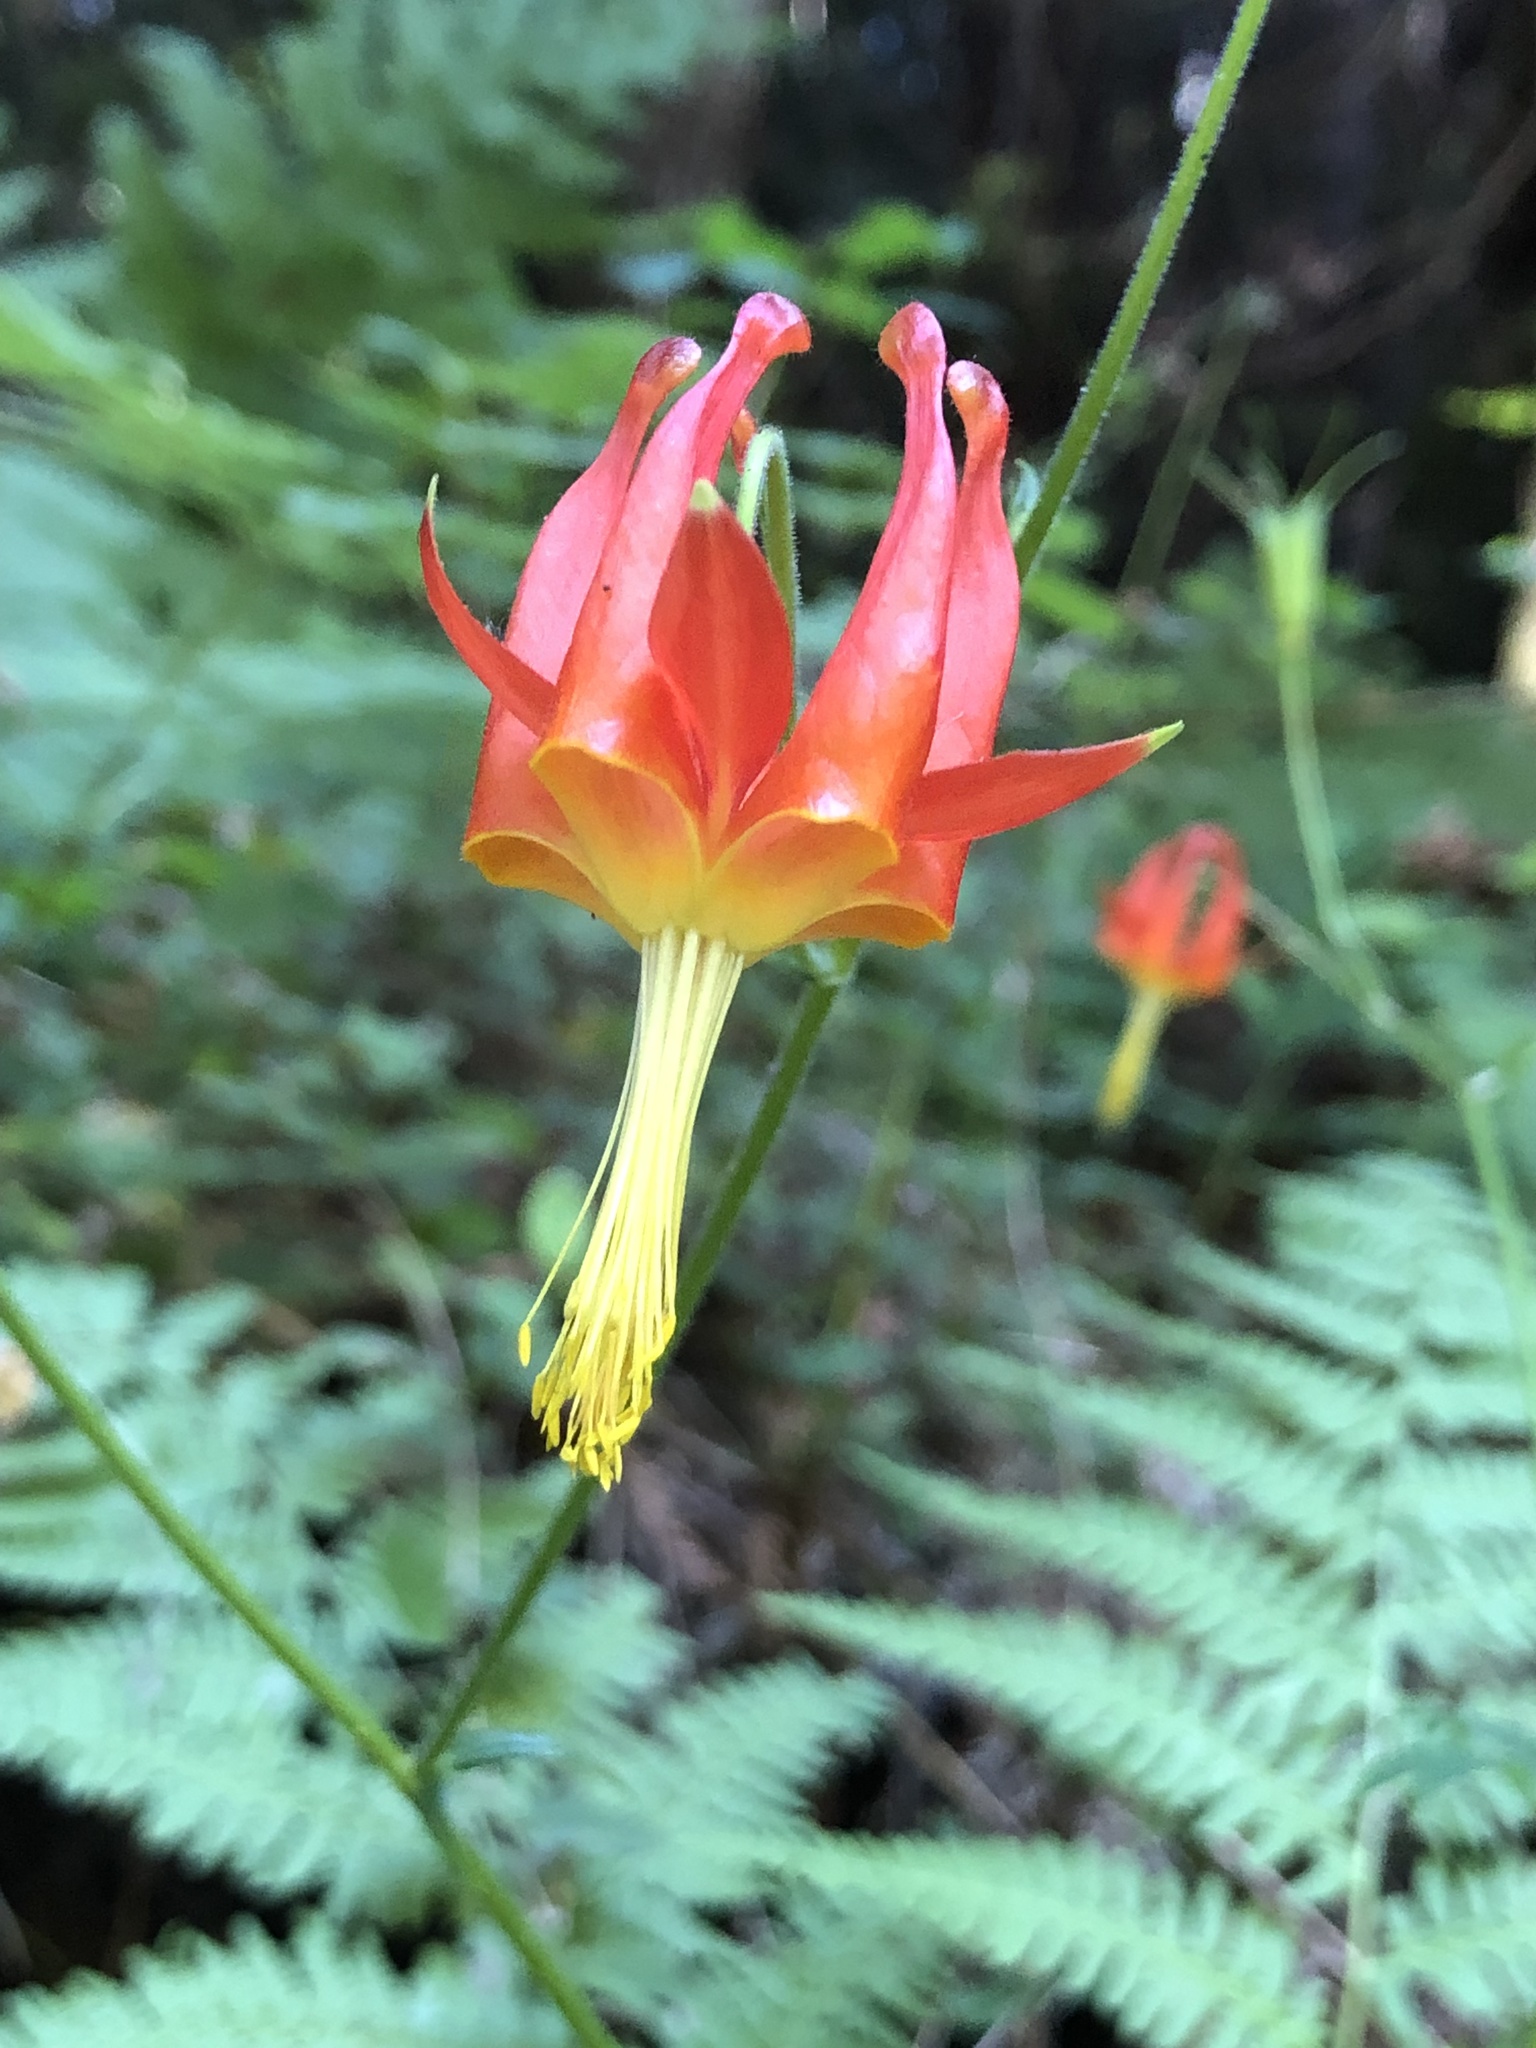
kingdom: Plantae
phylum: Tracheophyta
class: Magnoliopsida
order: Ranunculales
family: Ranunculaceae
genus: Aquilegia
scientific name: Aquilegia formosa
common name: Sitka columbine
